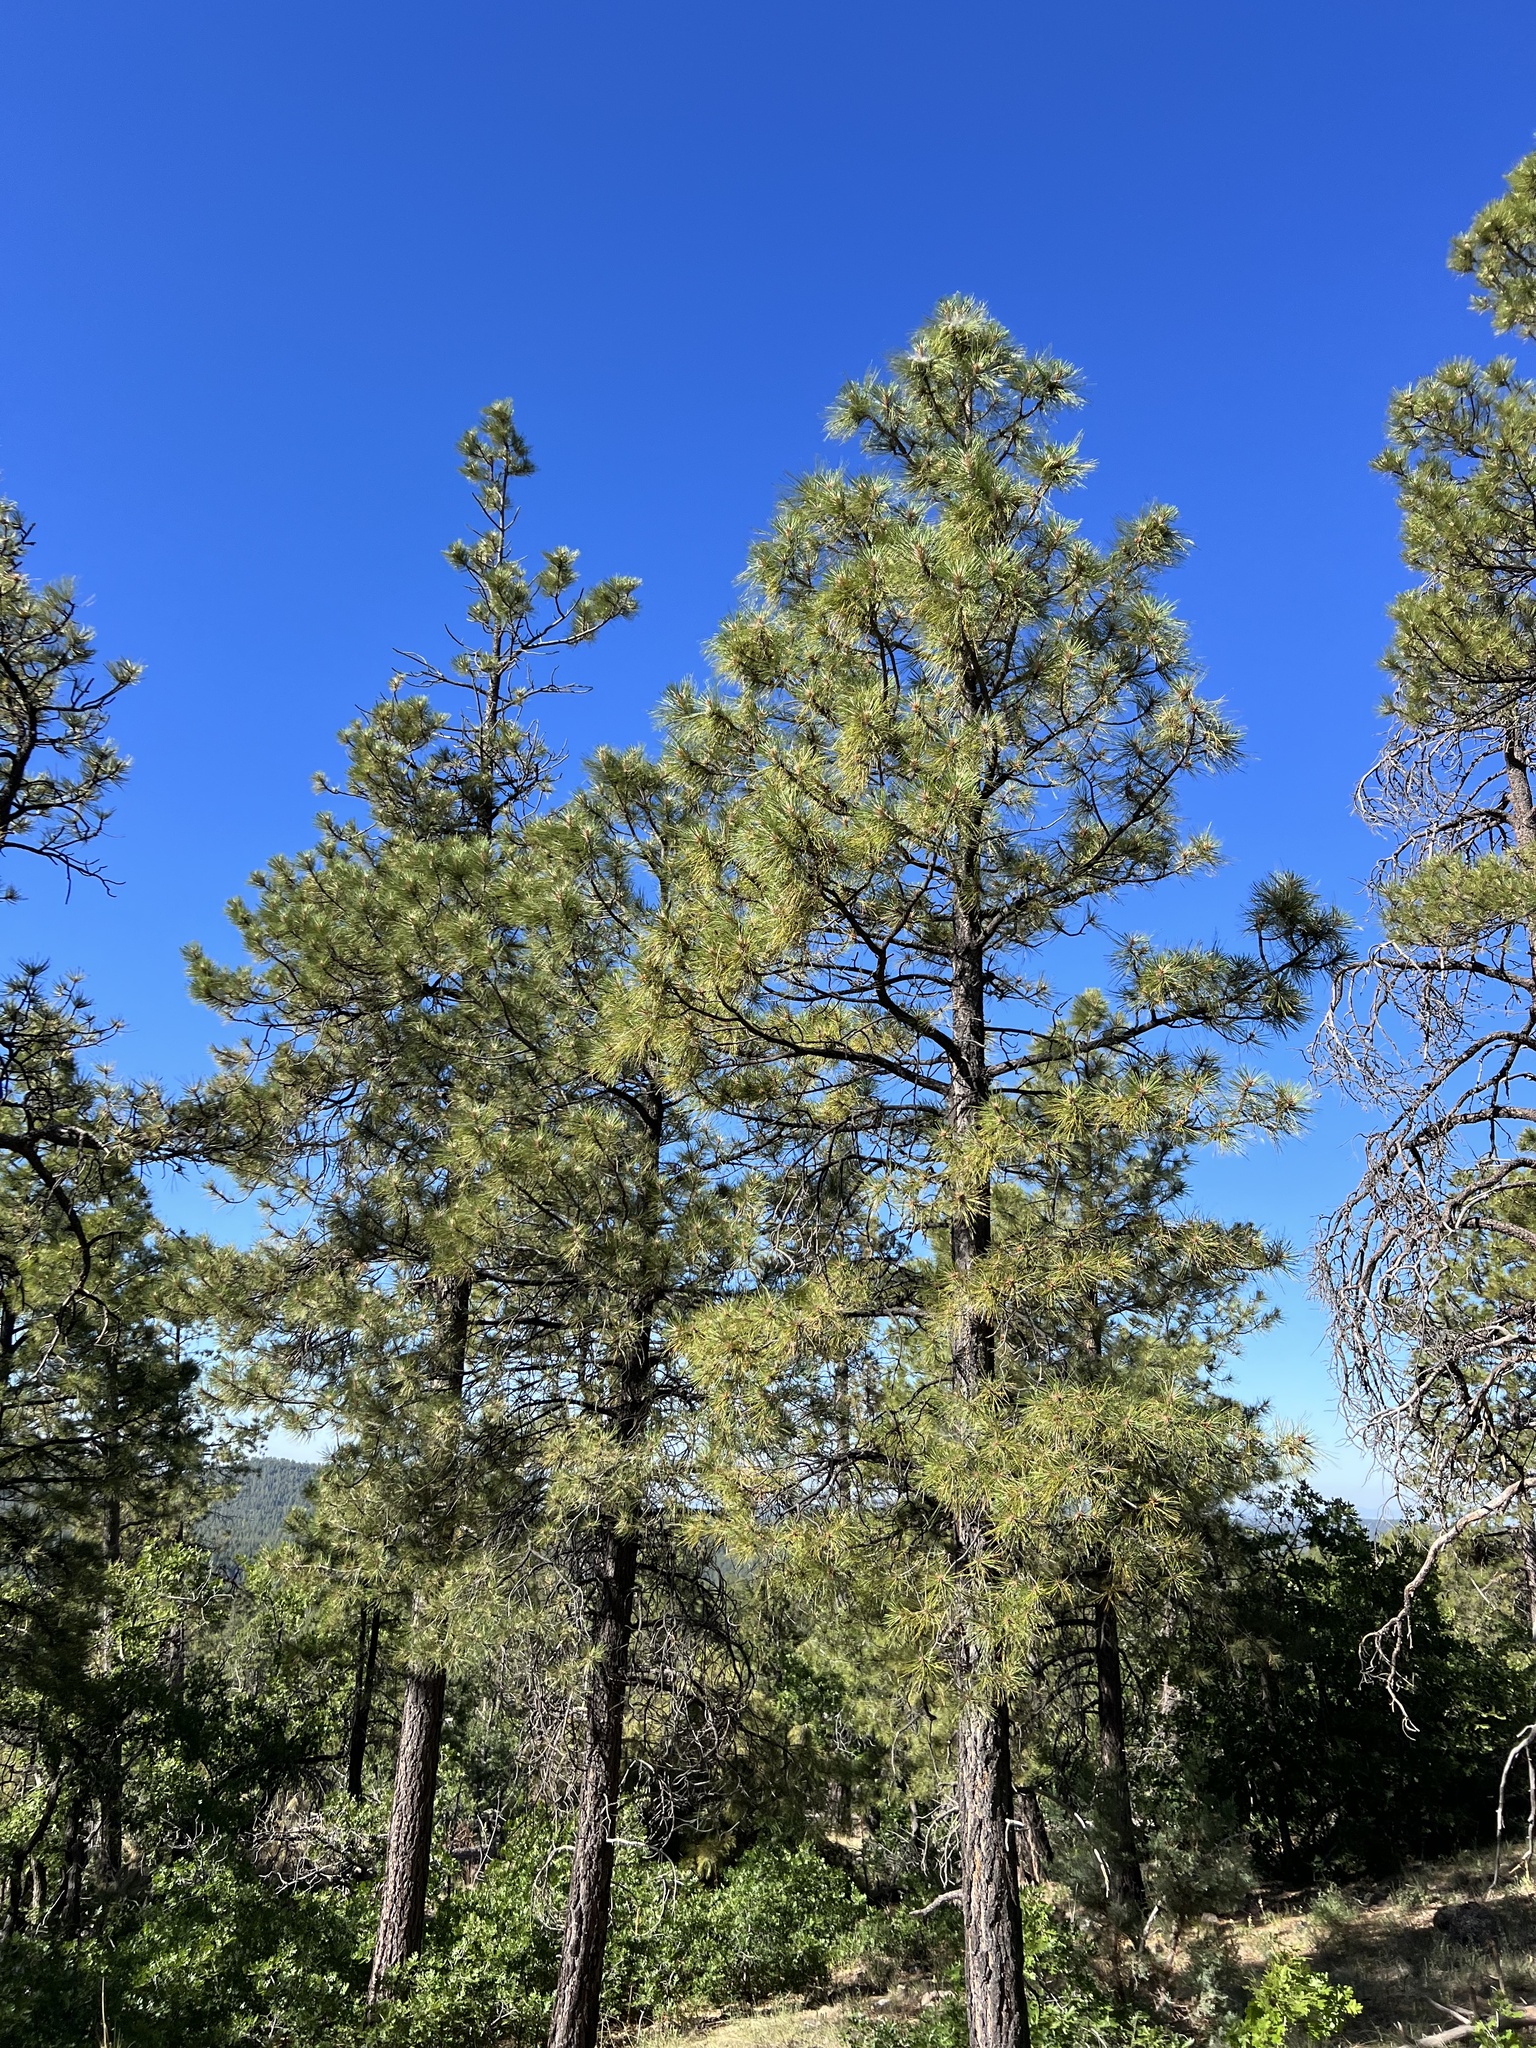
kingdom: Plantae
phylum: Tracheophyta
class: Pinopsida
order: Pinales
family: Pinaceae
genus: Pinus
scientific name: Pinus ponderosa
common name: Western yellow-pine
